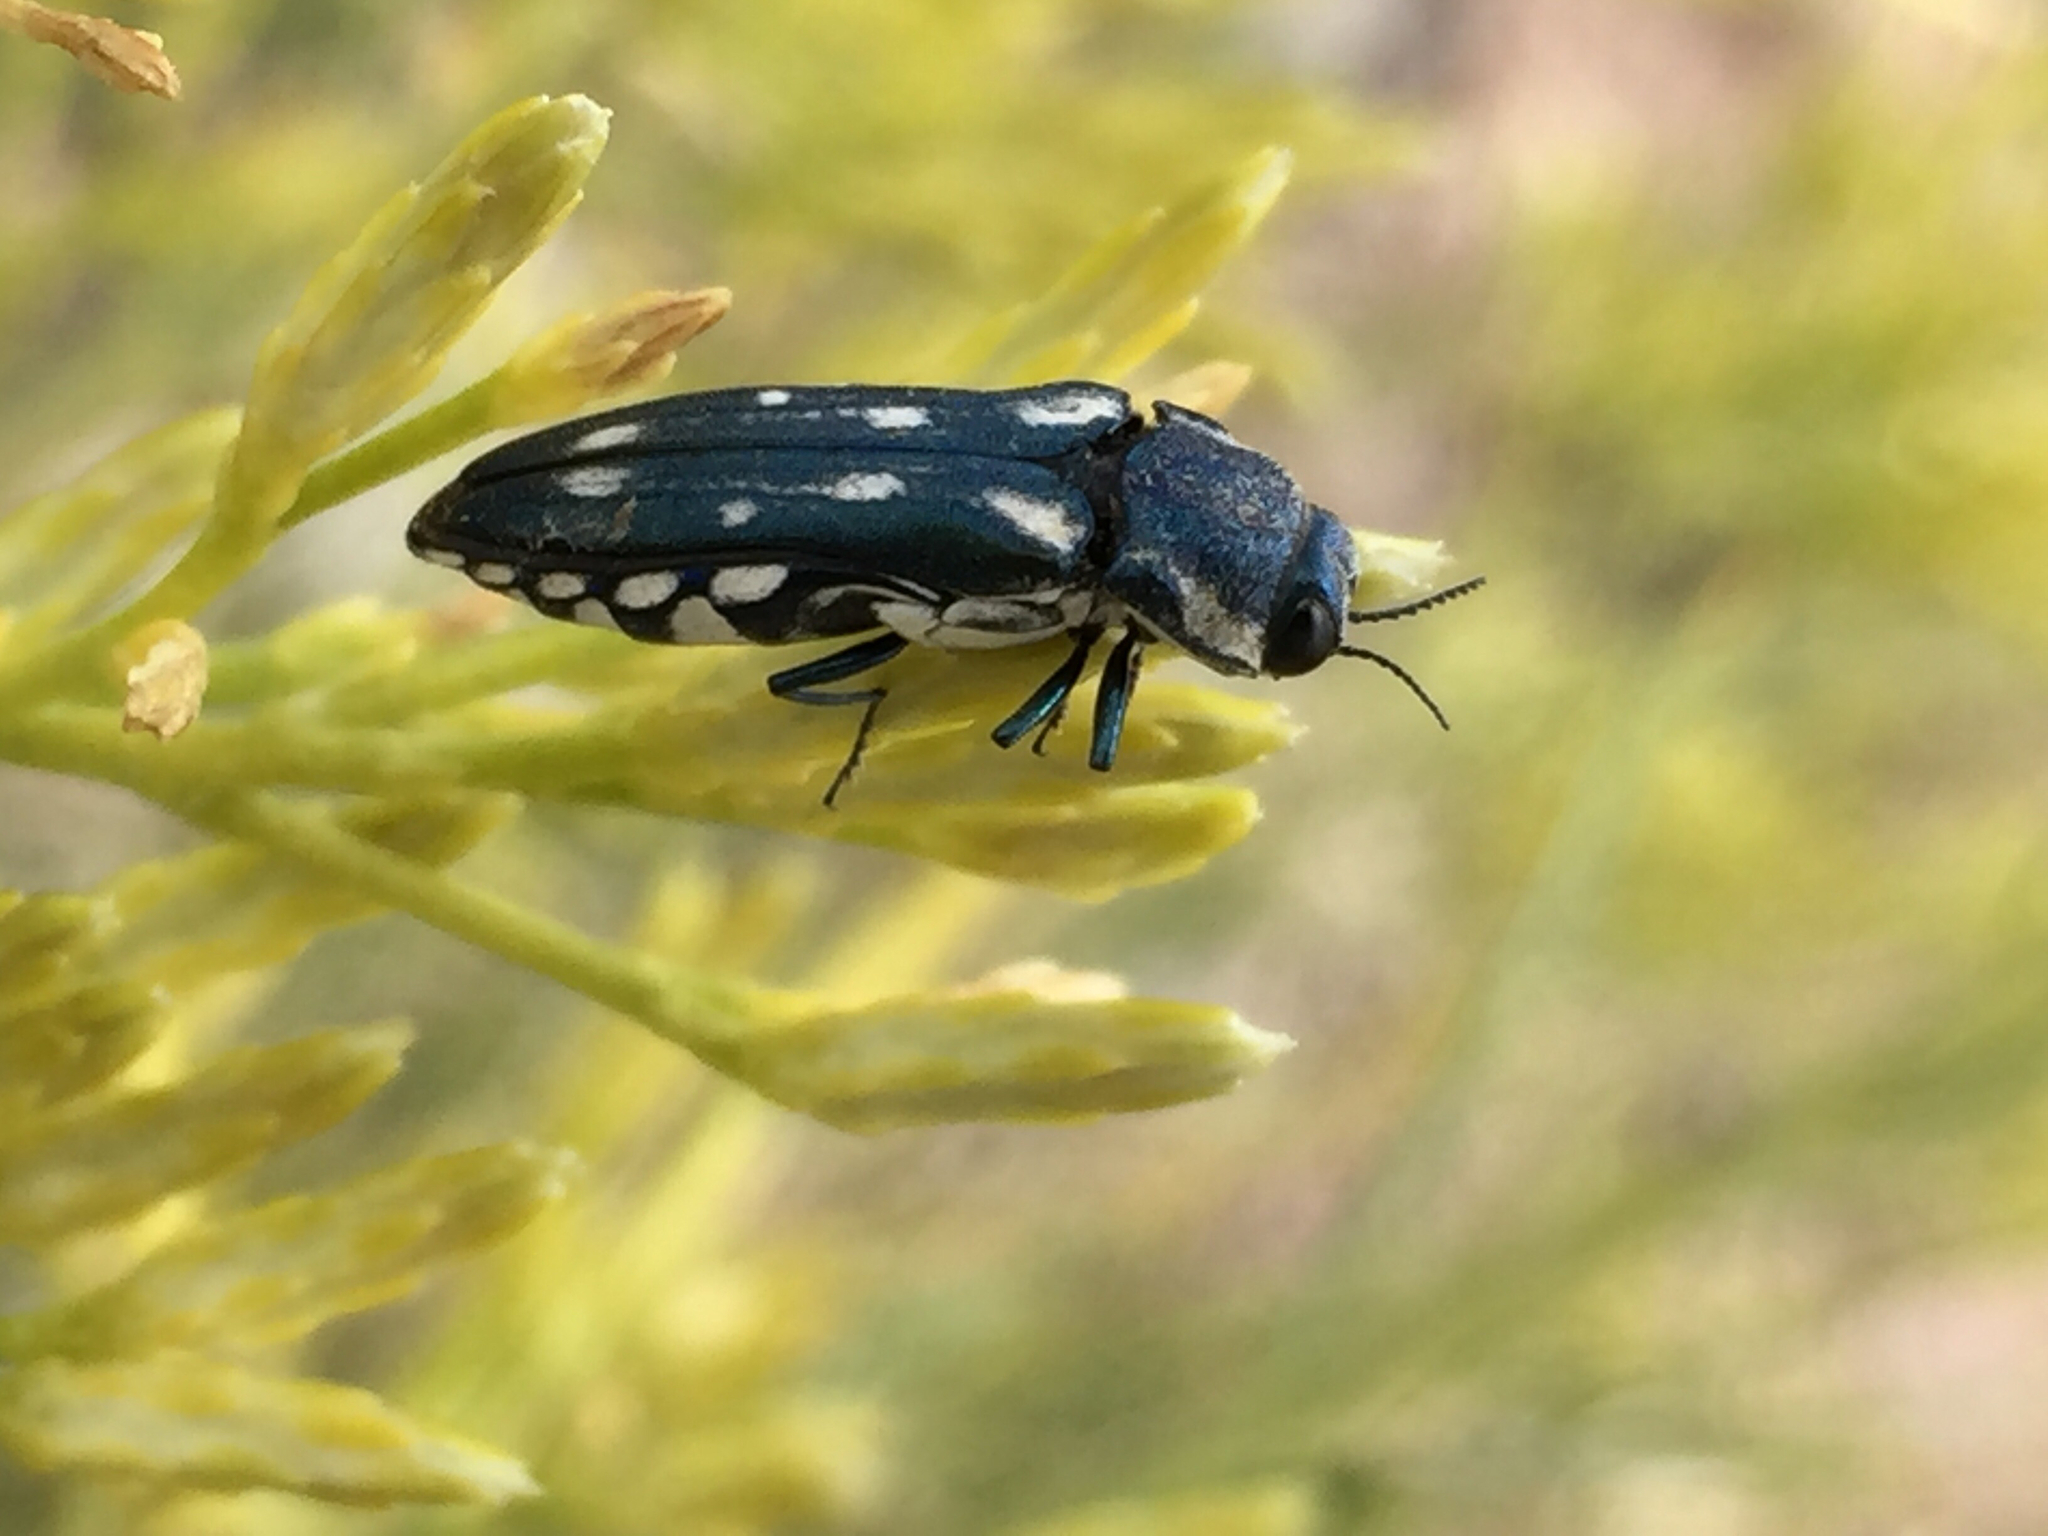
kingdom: Animalia
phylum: Arthropoda
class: Insecta
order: Coleoptera
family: Buprestidae
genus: Agrilus
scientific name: Agrilus walsinghami
